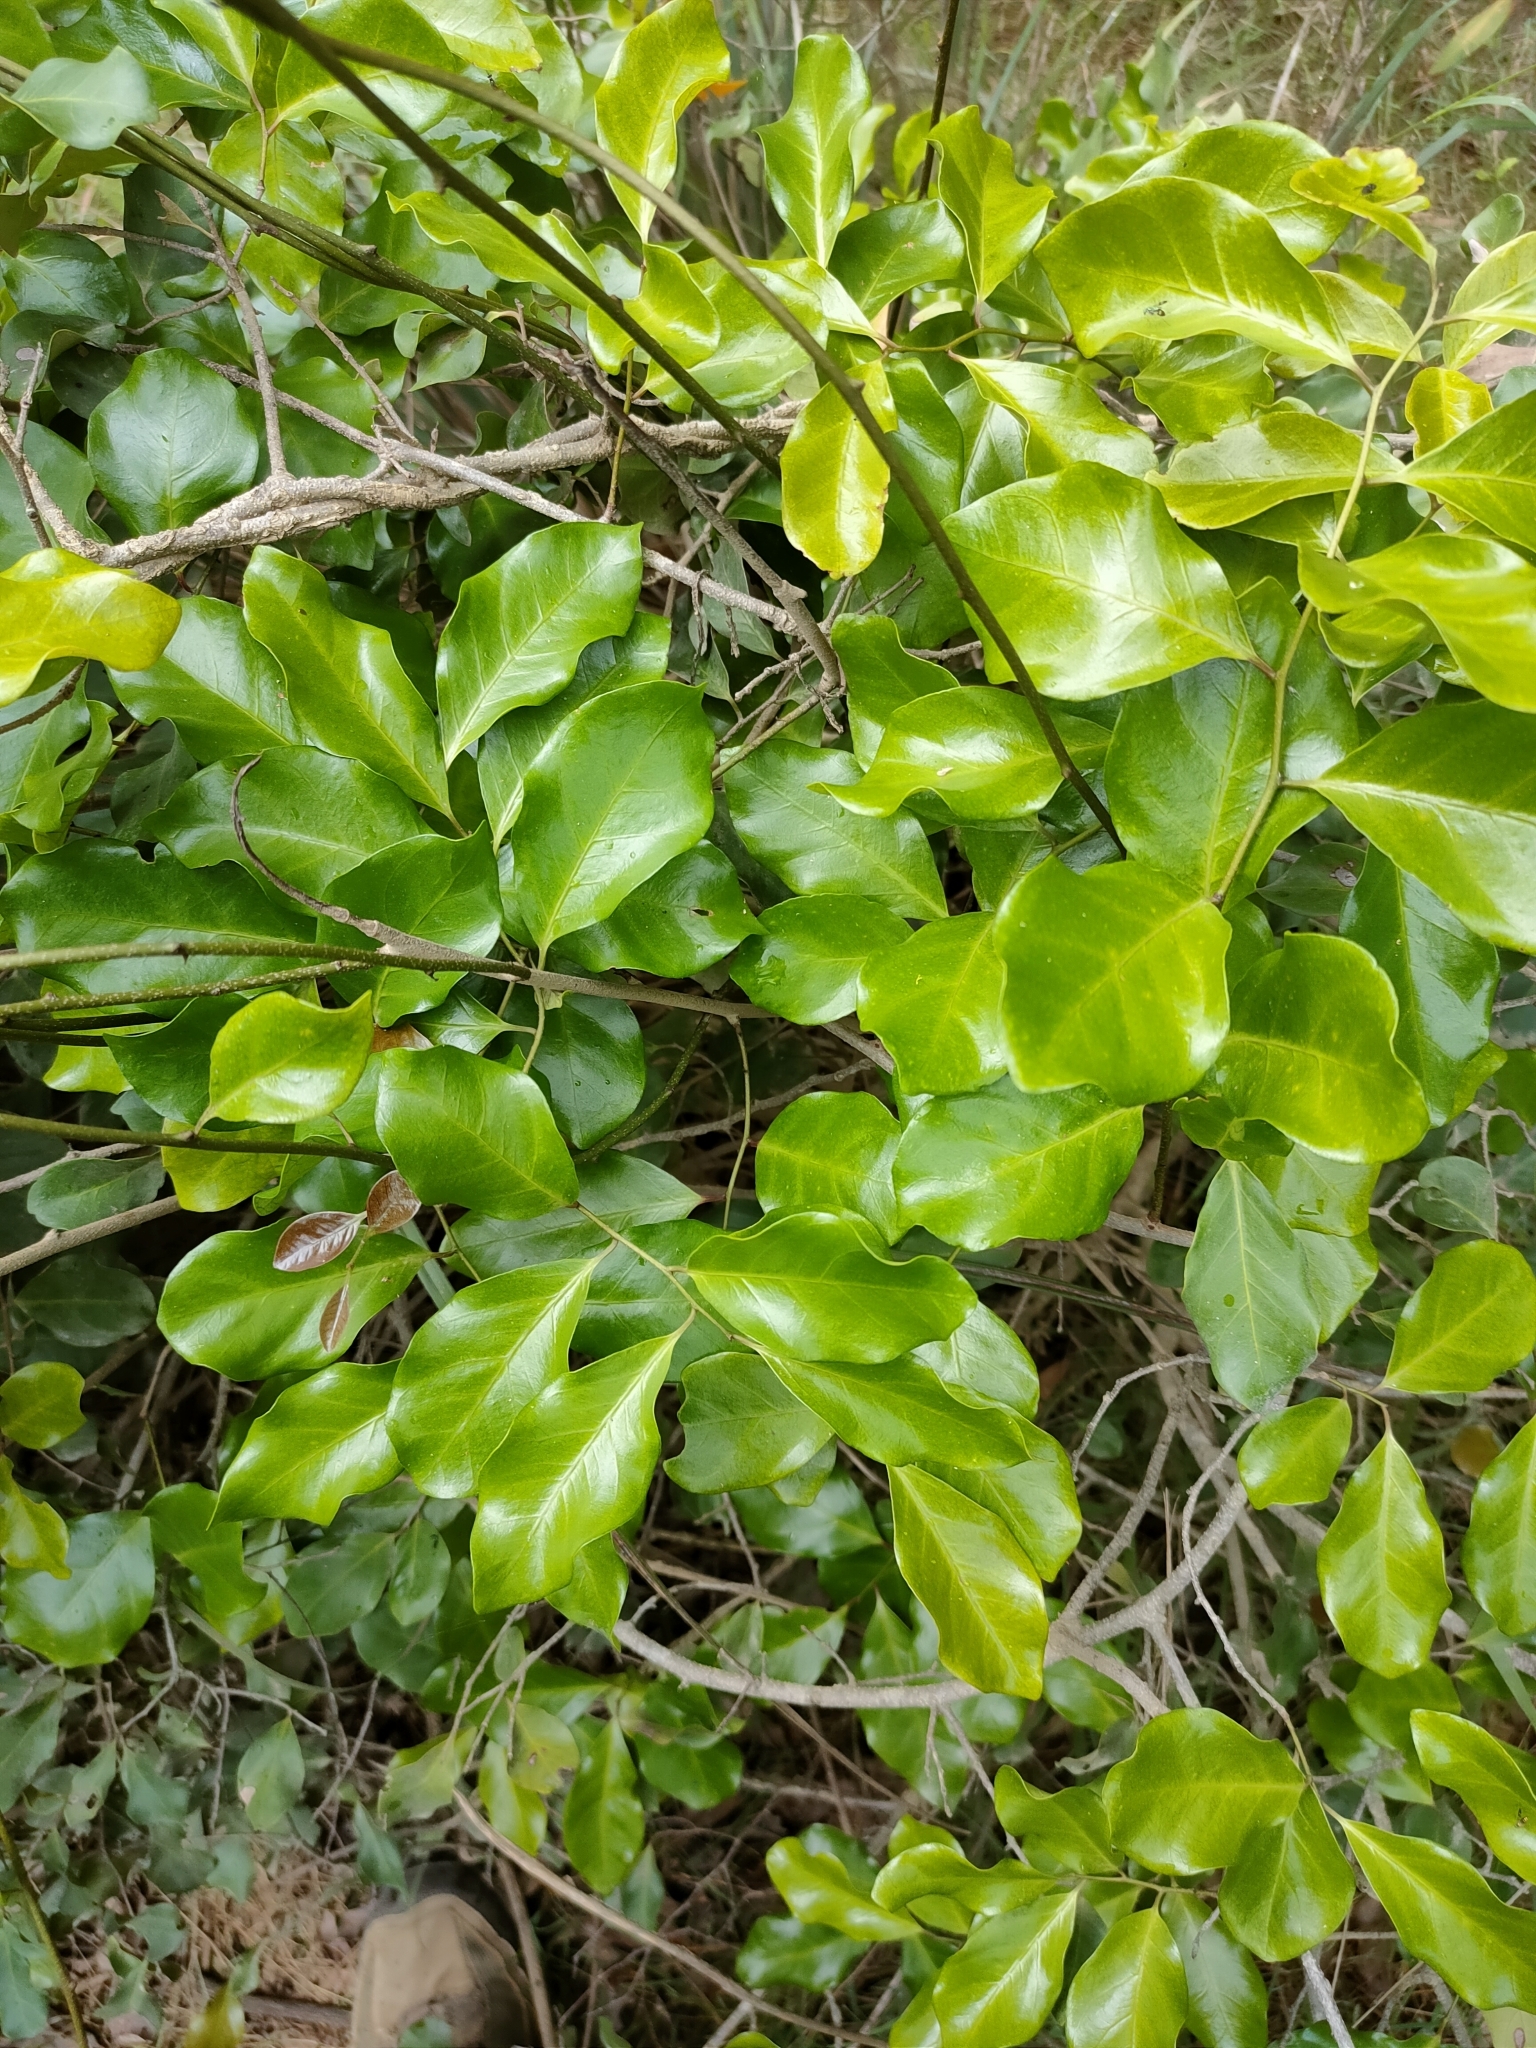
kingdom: Plantae
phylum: Tracheophyta
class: Magnoliopsida
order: Ericales
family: Primulaceae
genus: Embelia
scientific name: Embelia australiana
